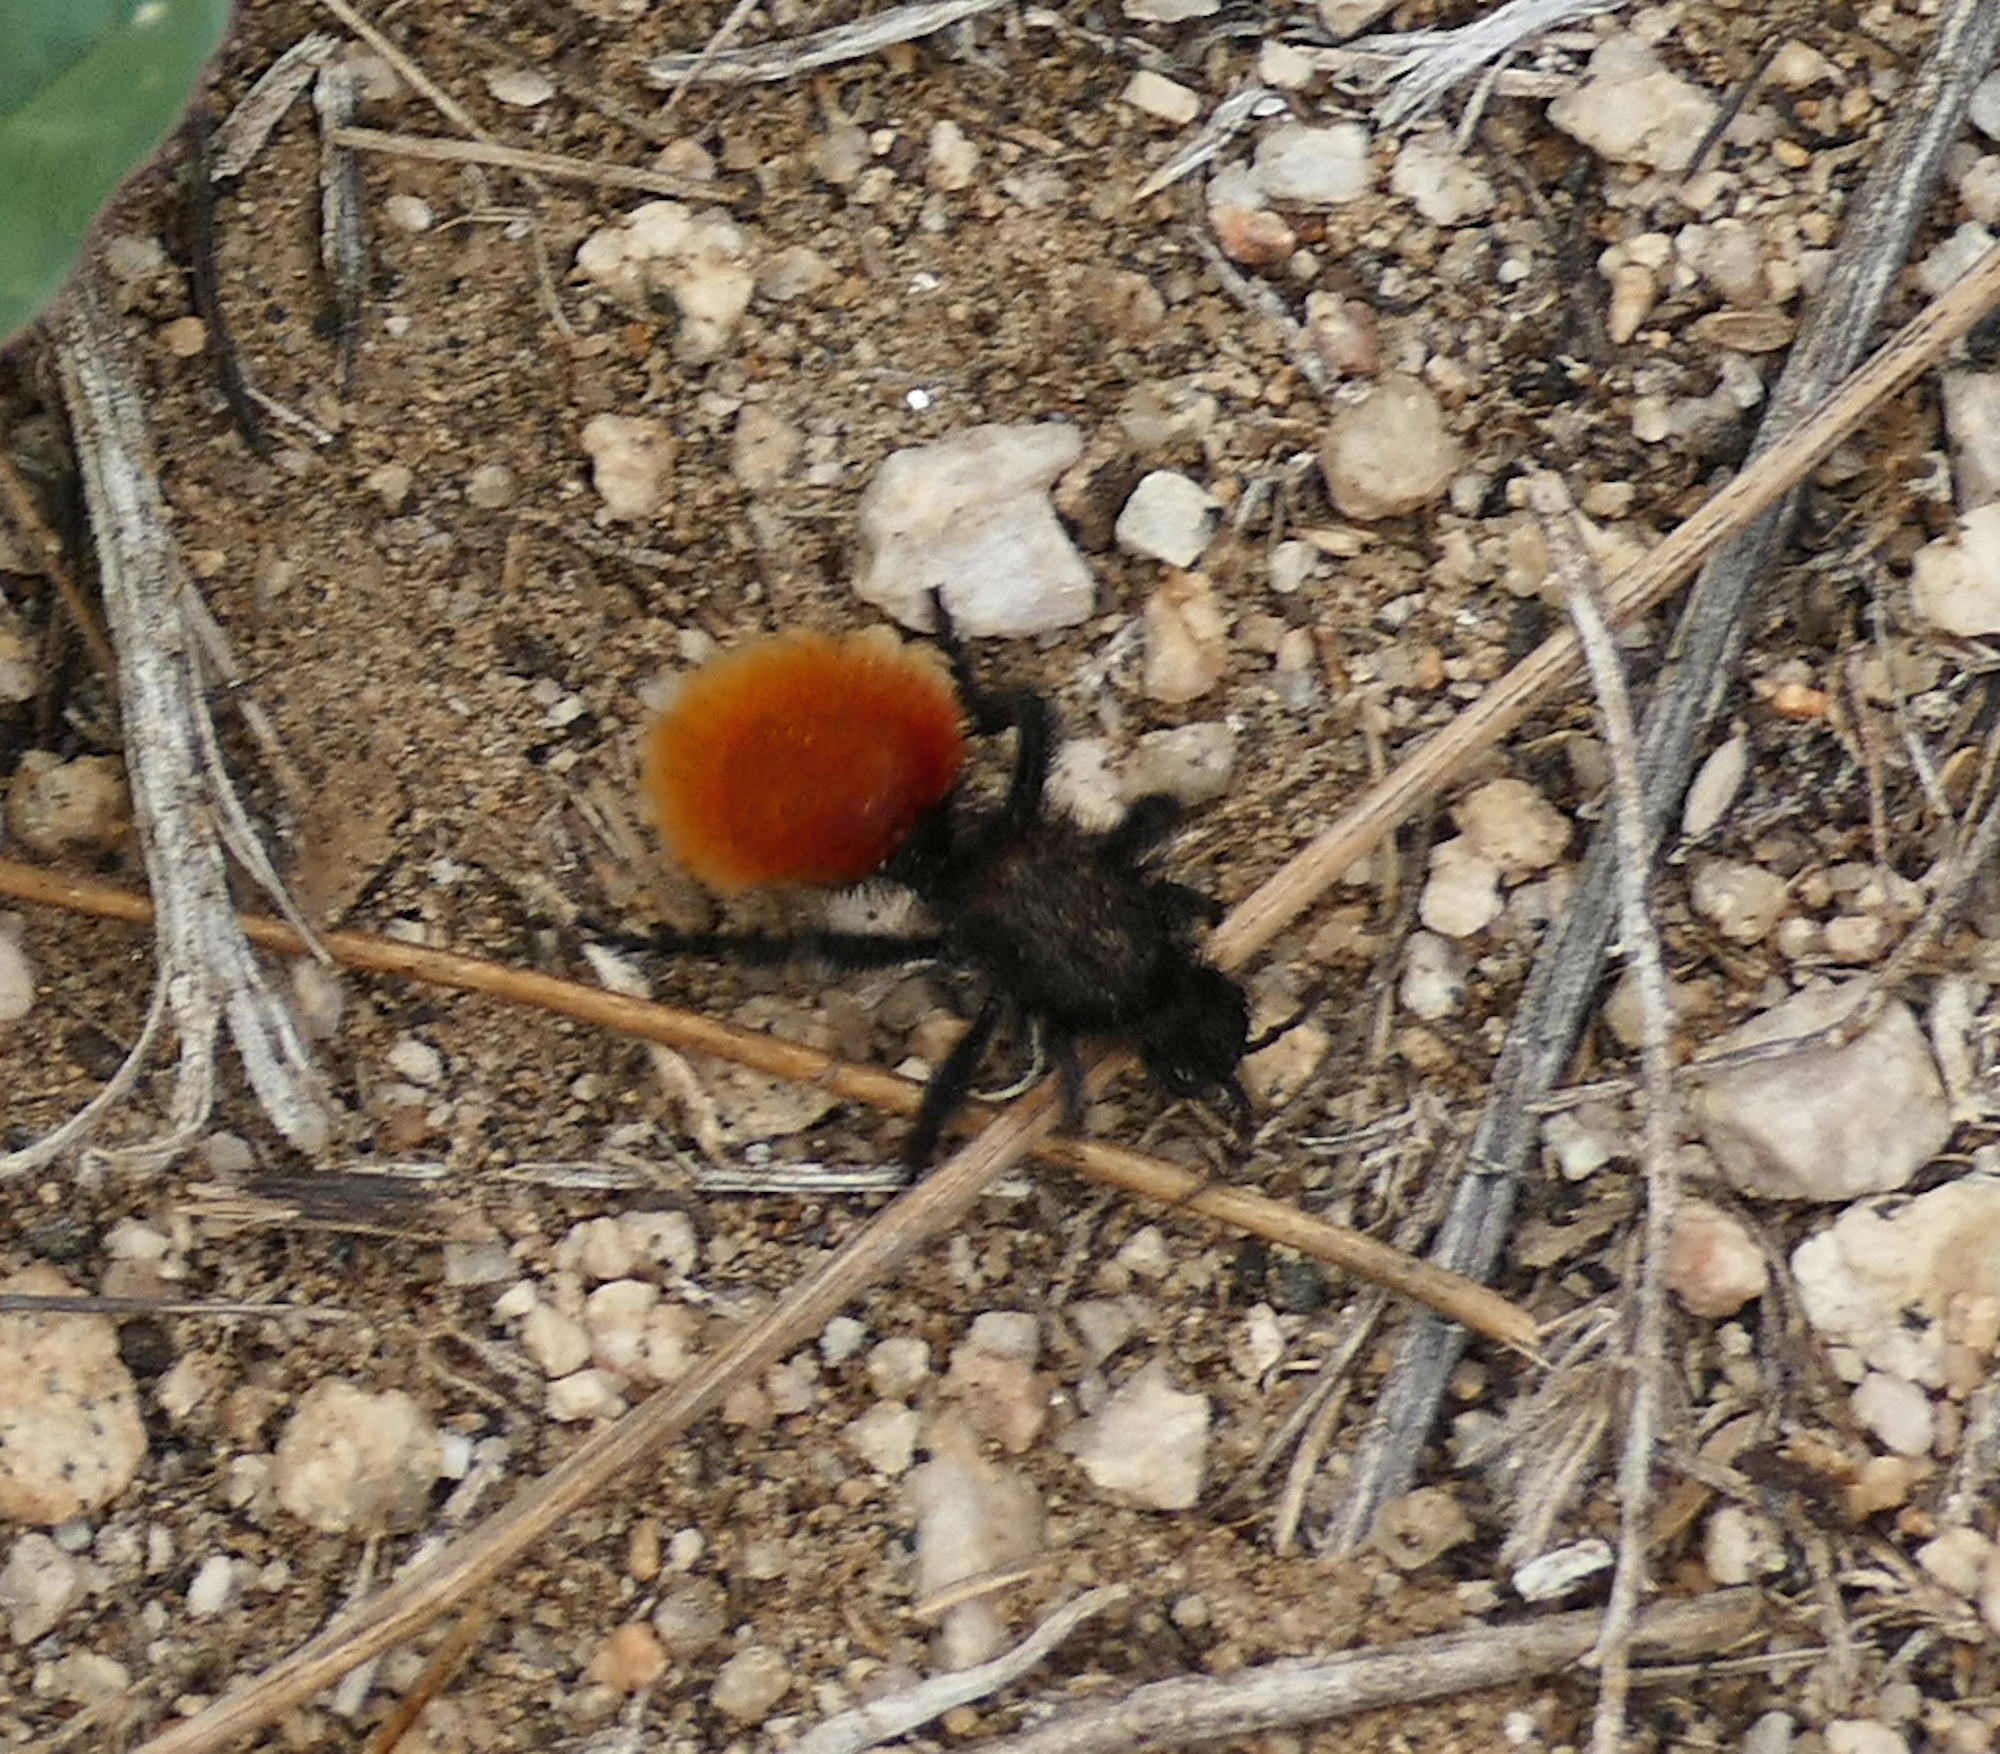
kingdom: Animalia
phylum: Arthropoda
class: Insecta
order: Hymenoptera
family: Mutillidae
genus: Dasymutilla
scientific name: Dasymutilla magnifica
